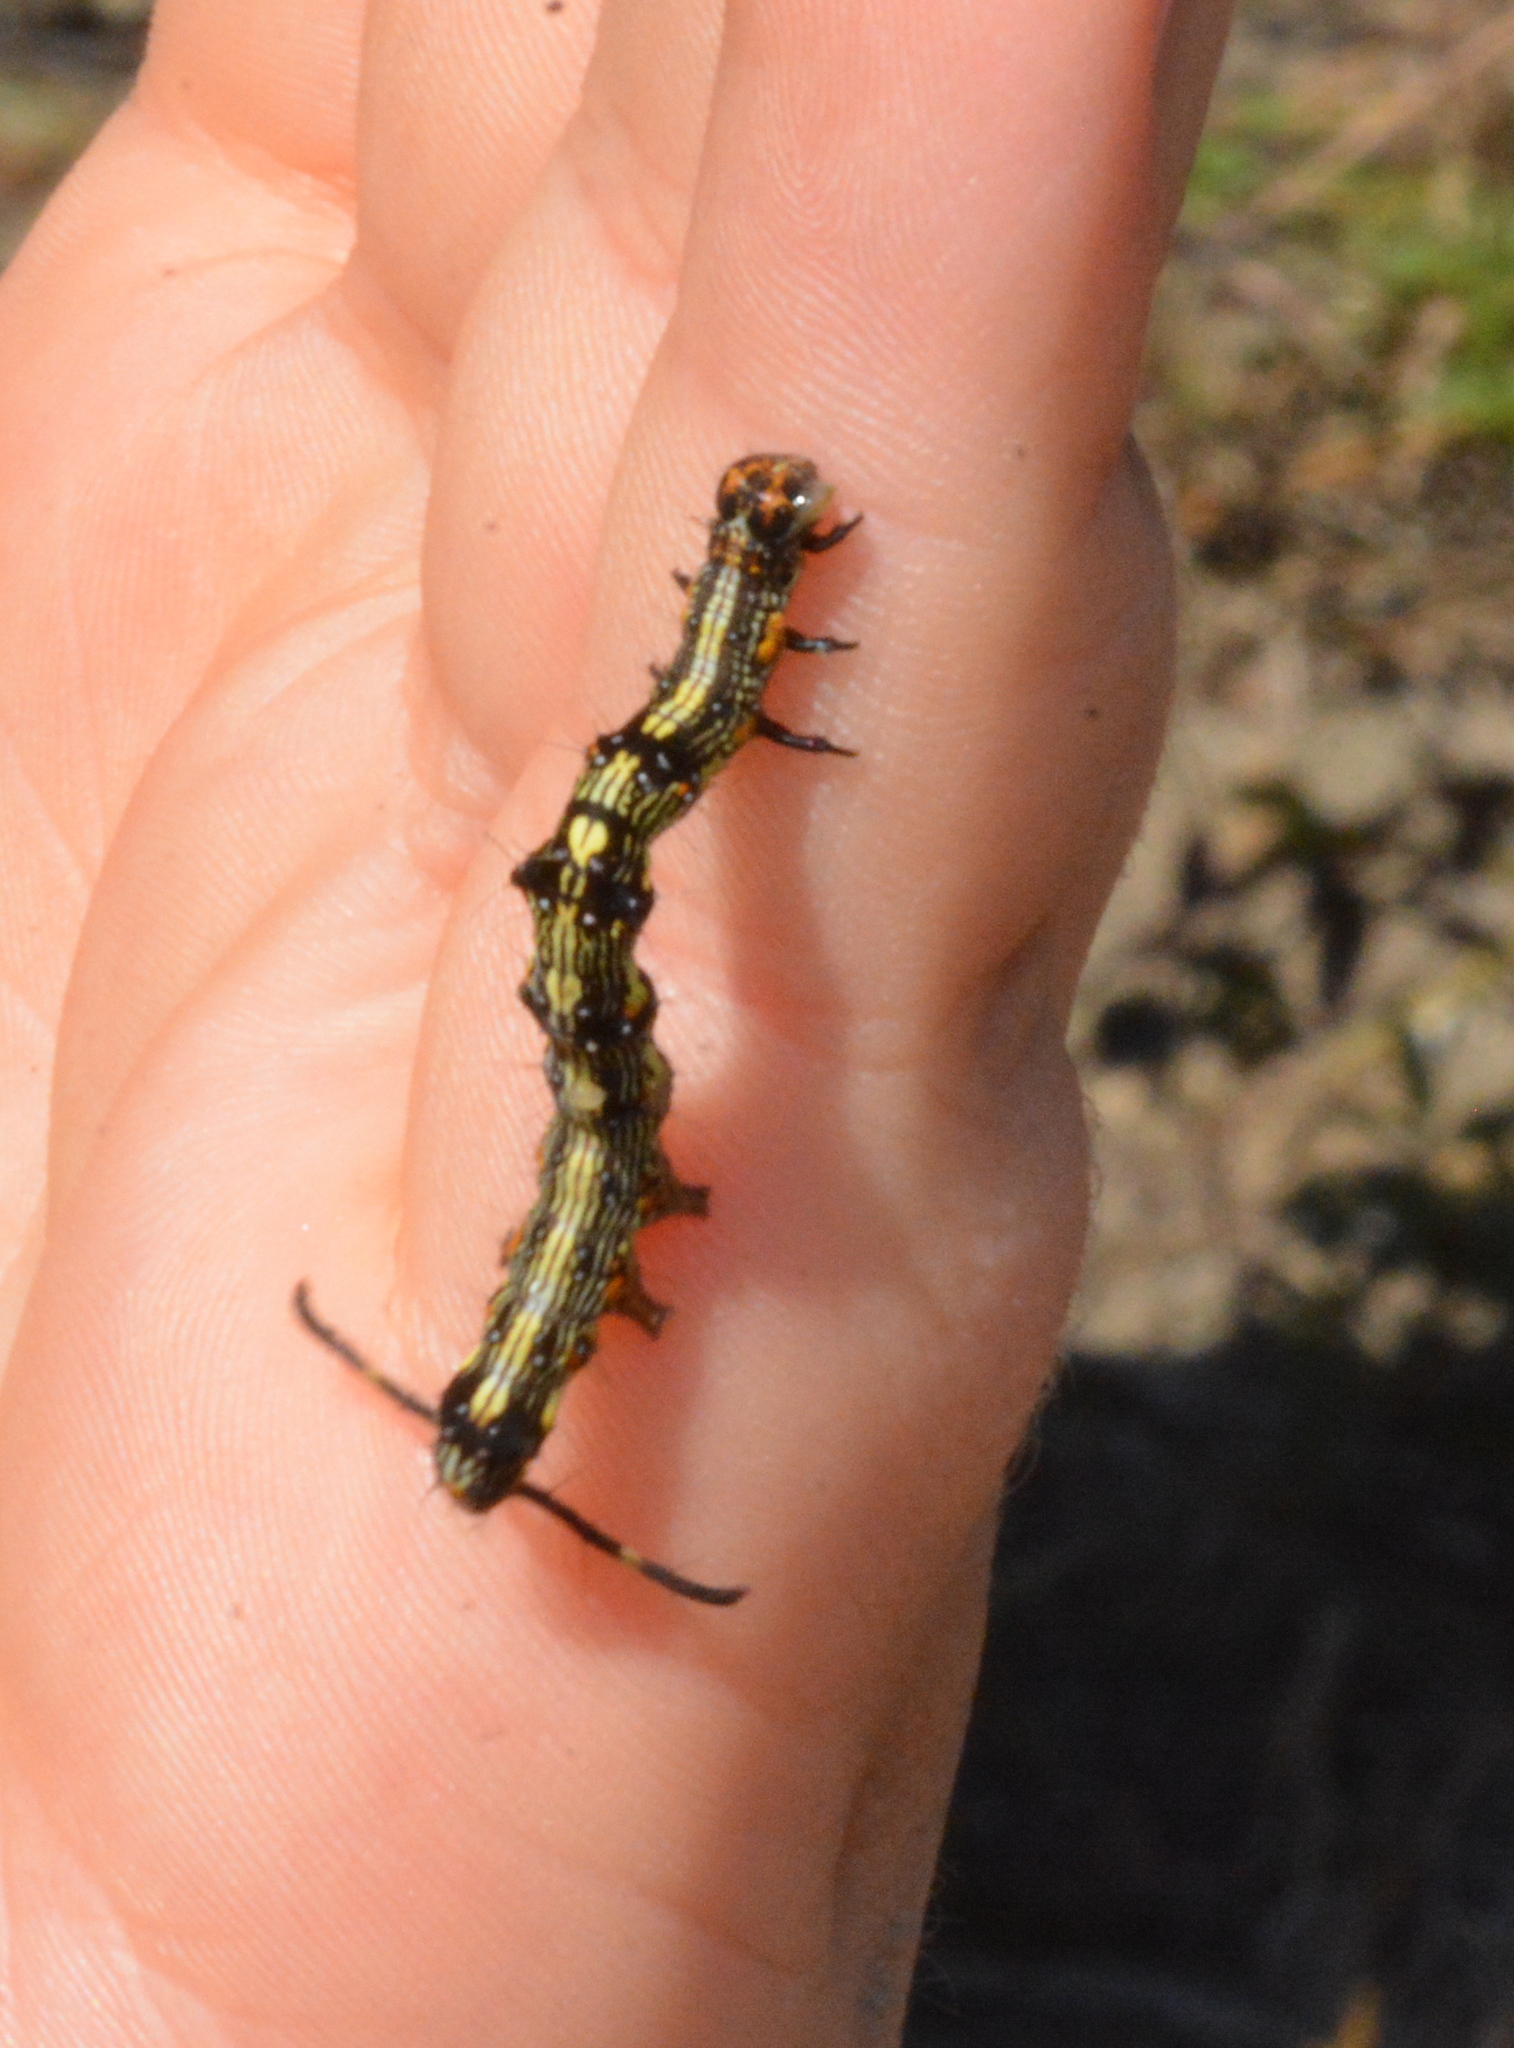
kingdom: Animalia
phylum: Arthropoda
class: Insecta
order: Lepidoptera
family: Erebidae
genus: Selenisa
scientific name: Selenisa sueroides
